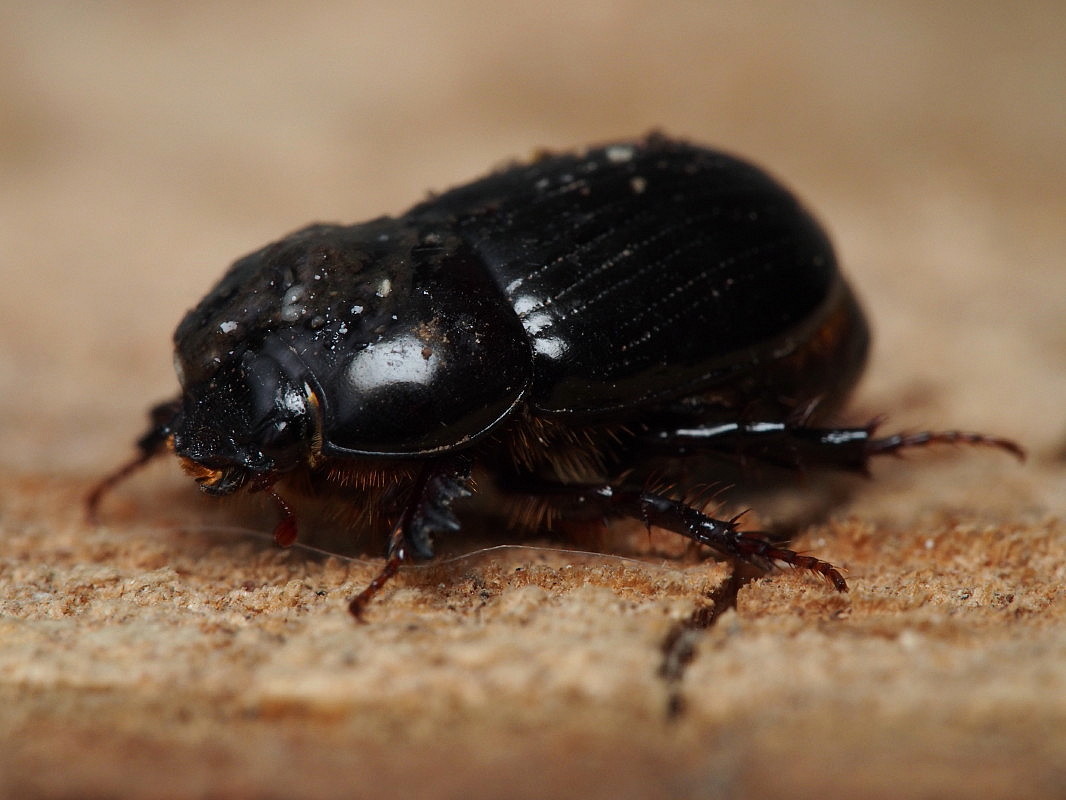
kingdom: Animalia
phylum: Arthropoda
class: Insecta
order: Coleoptera
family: Scarabaeidae
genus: Dasygnathus
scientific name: Dasygnathus dejeani
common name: Redheaded whitegrub
